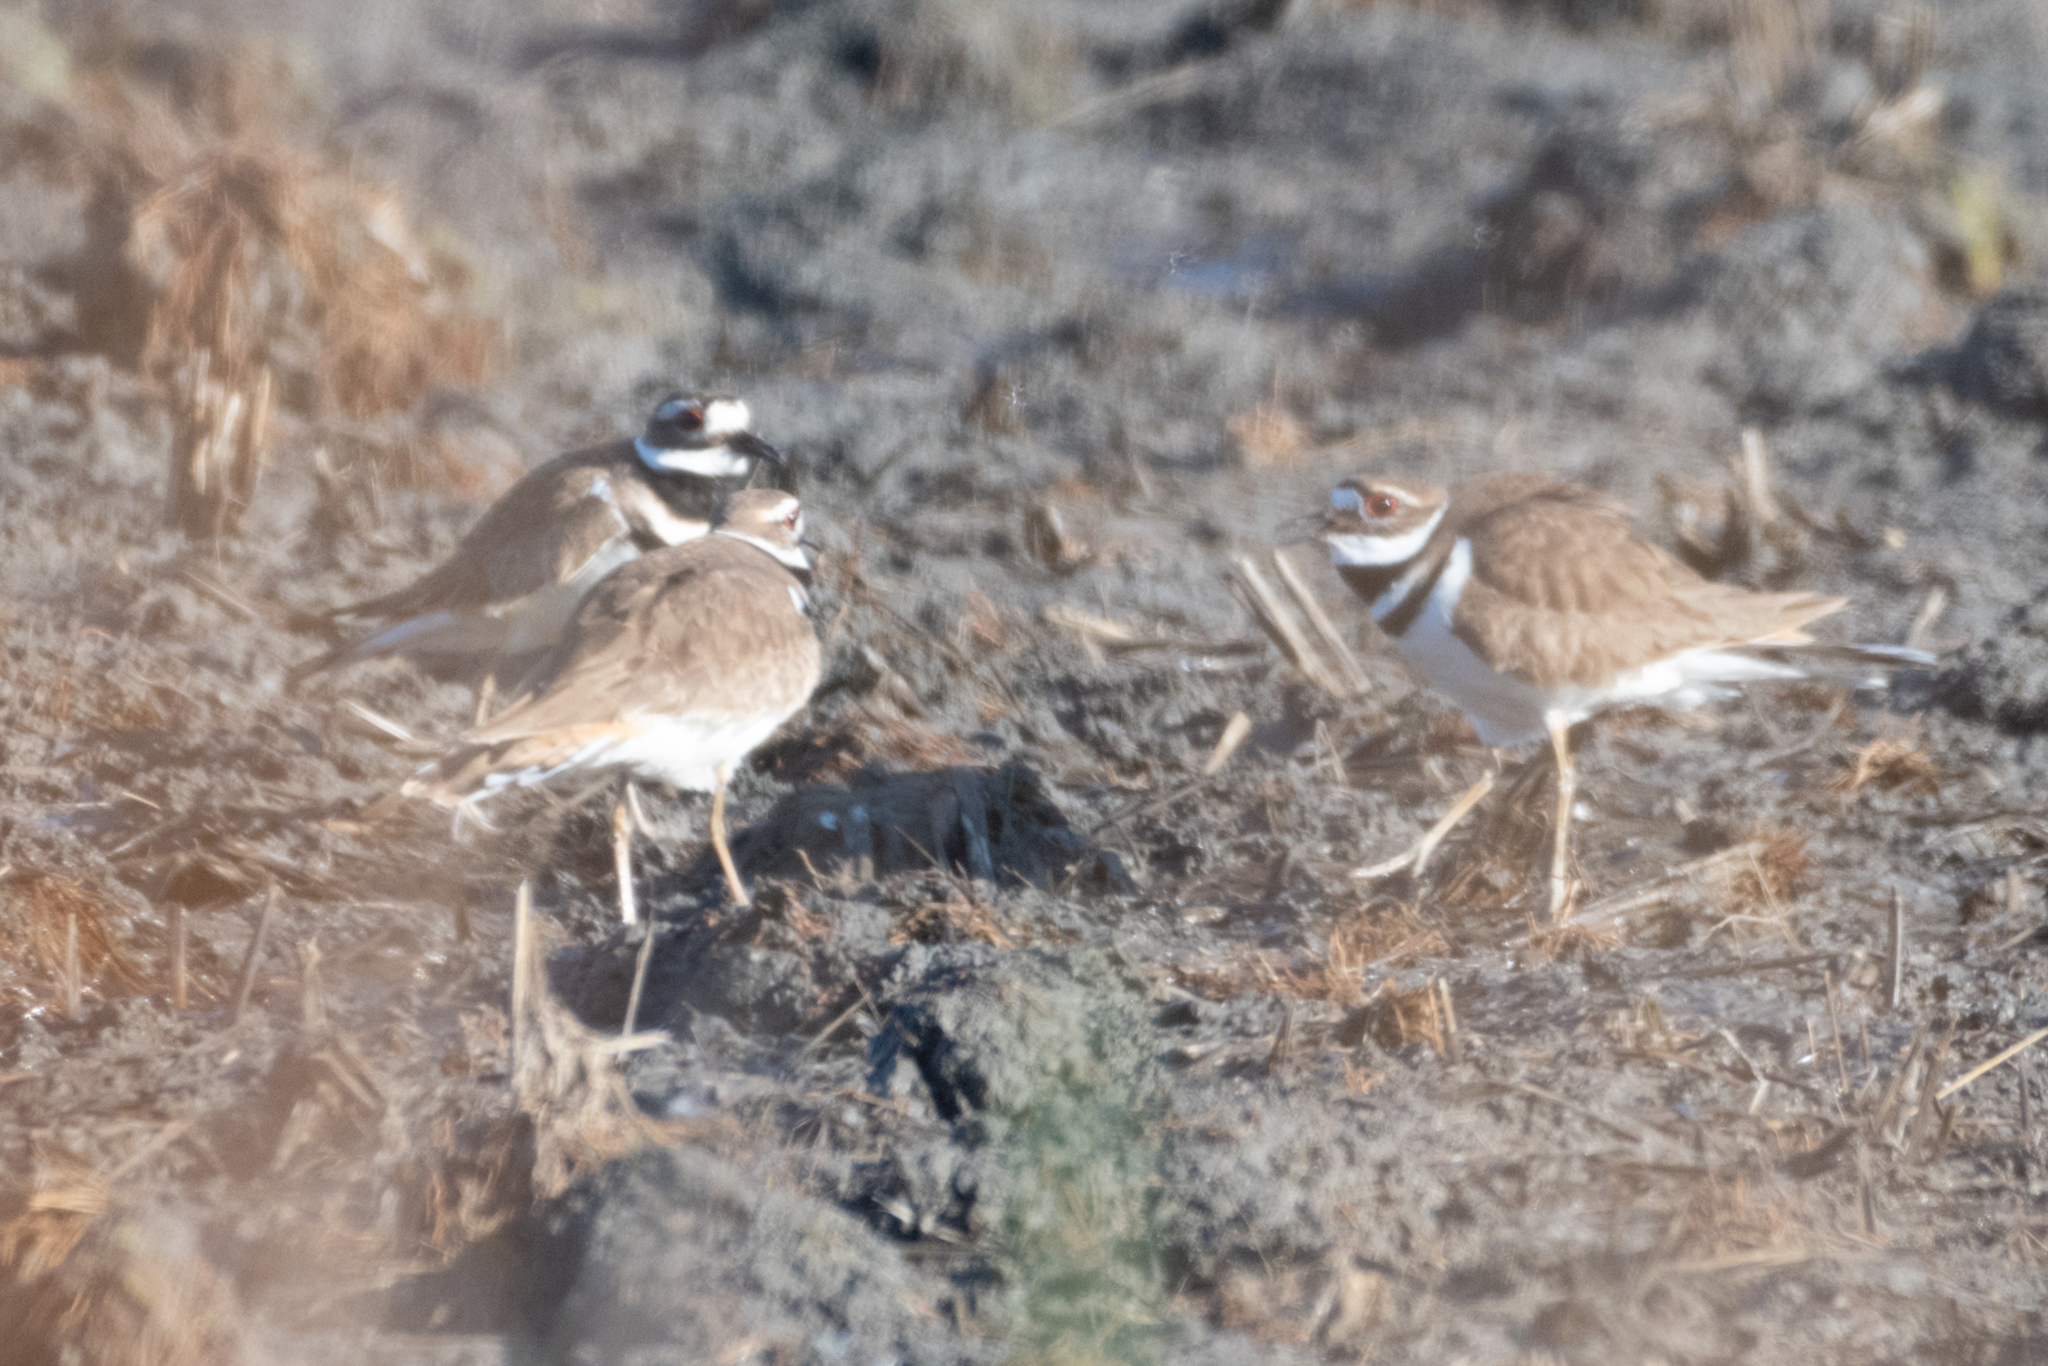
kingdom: Animalia
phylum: Chordata
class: Aves
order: Charadriiformes
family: Charadriidae
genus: Charadrius
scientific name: Charadrius vociferus
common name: Killdeer
